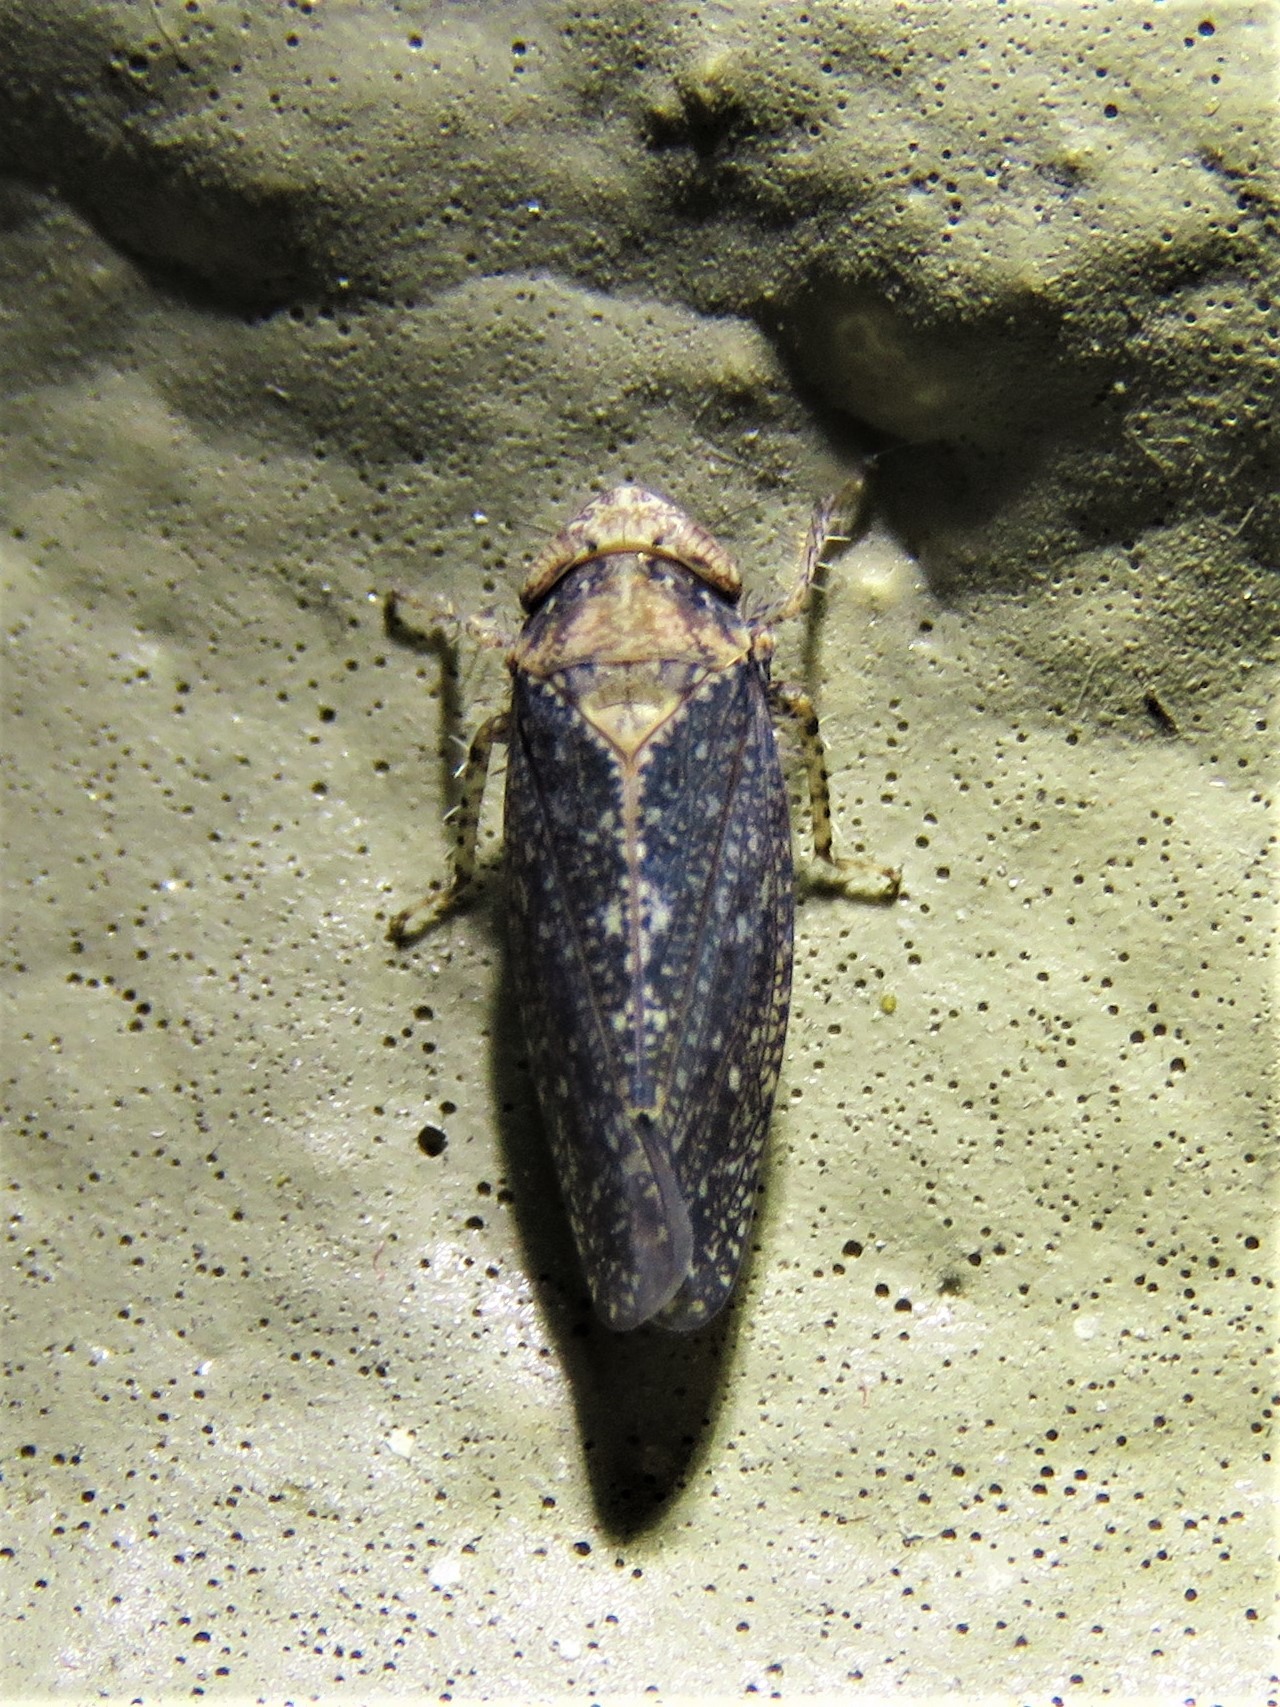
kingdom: Animalia
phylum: Arthropoda
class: Insecta
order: Hemiptera
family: Cicadellidae
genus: Excultanus
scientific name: Excultanus excultus
